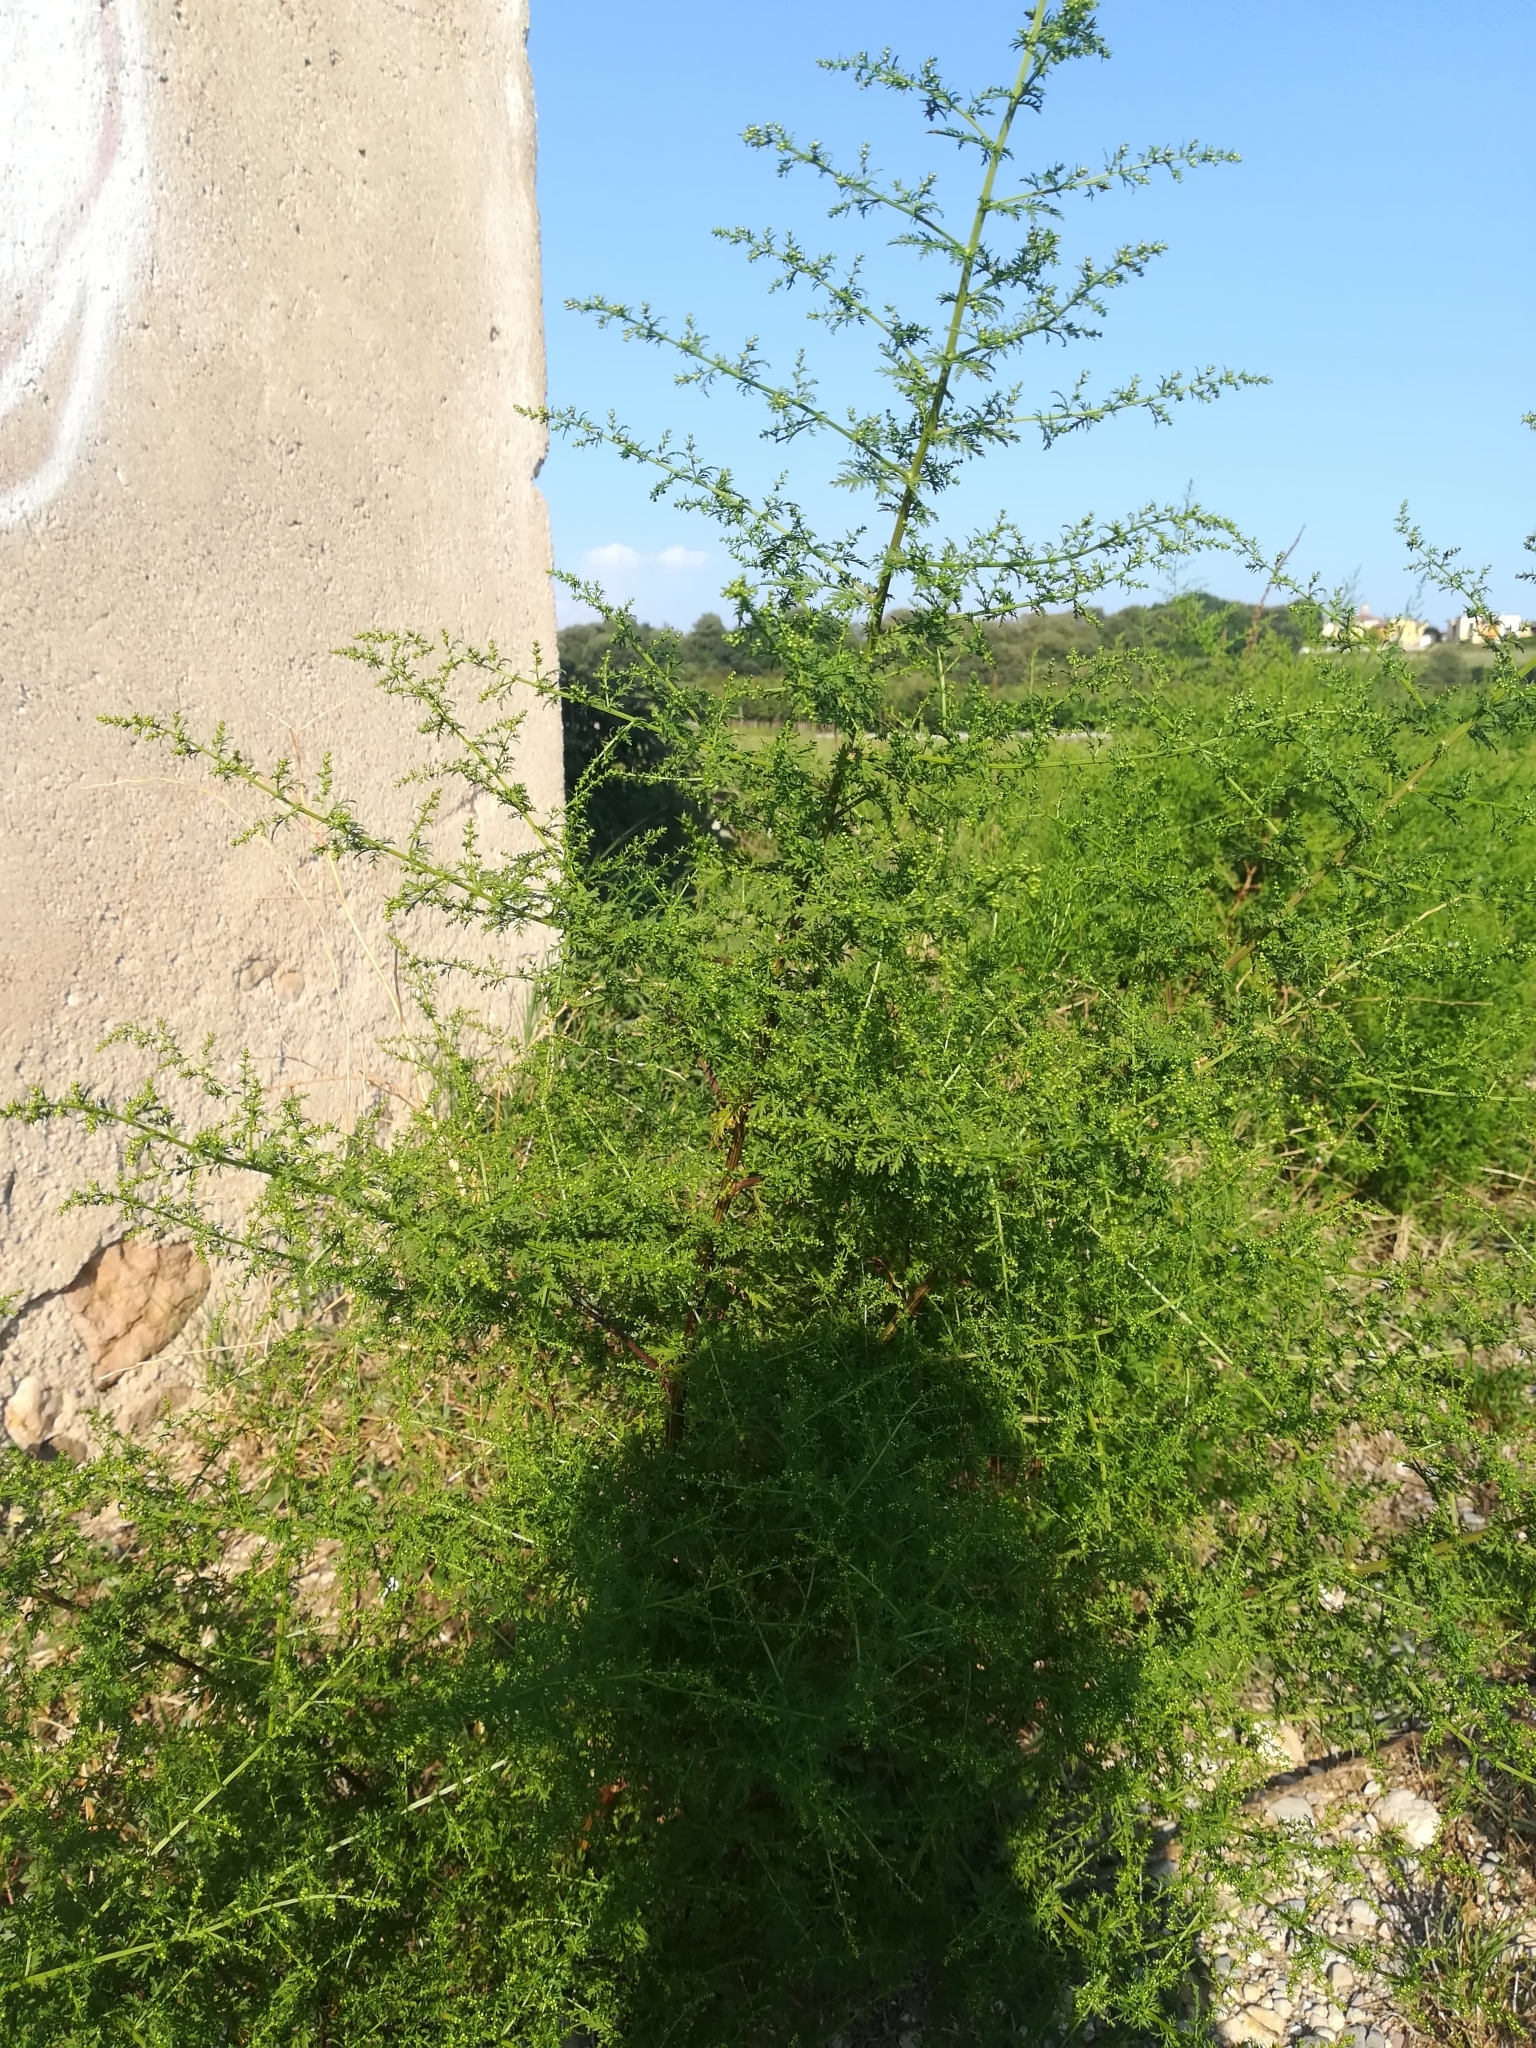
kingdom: Plantae
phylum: Tracheophyta
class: Magnoliopsida
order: Asterales
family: Asteraceae
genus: Artemisia
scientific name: Artemisia annua
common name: Sweet sagewort
